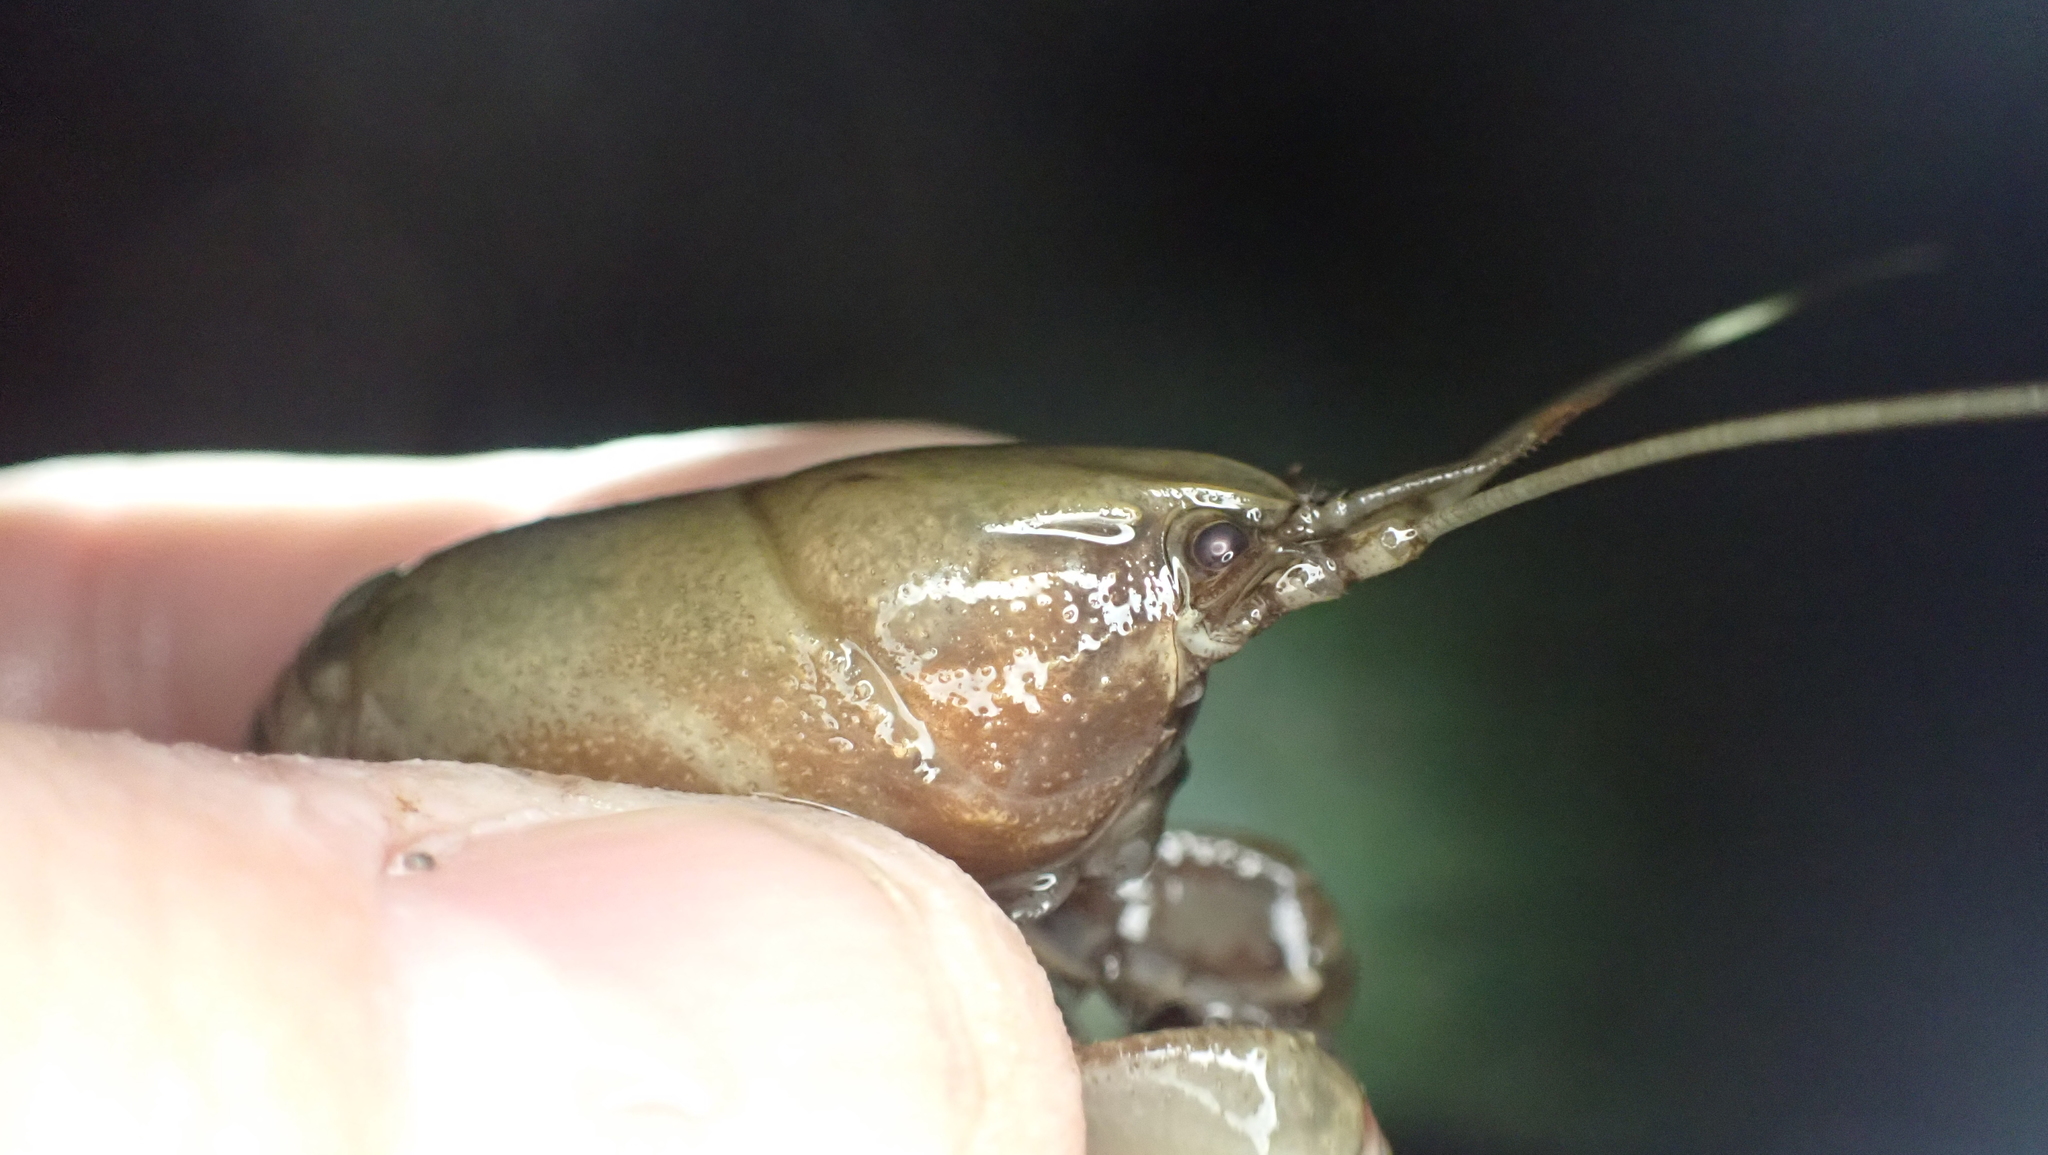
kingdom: Animalia
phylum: Arthropoda
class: Malacostraca
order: Decapoda
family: Cambaridae
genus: Cambarus
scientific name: Cambarus striatus
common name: Ambiguous crayfish
